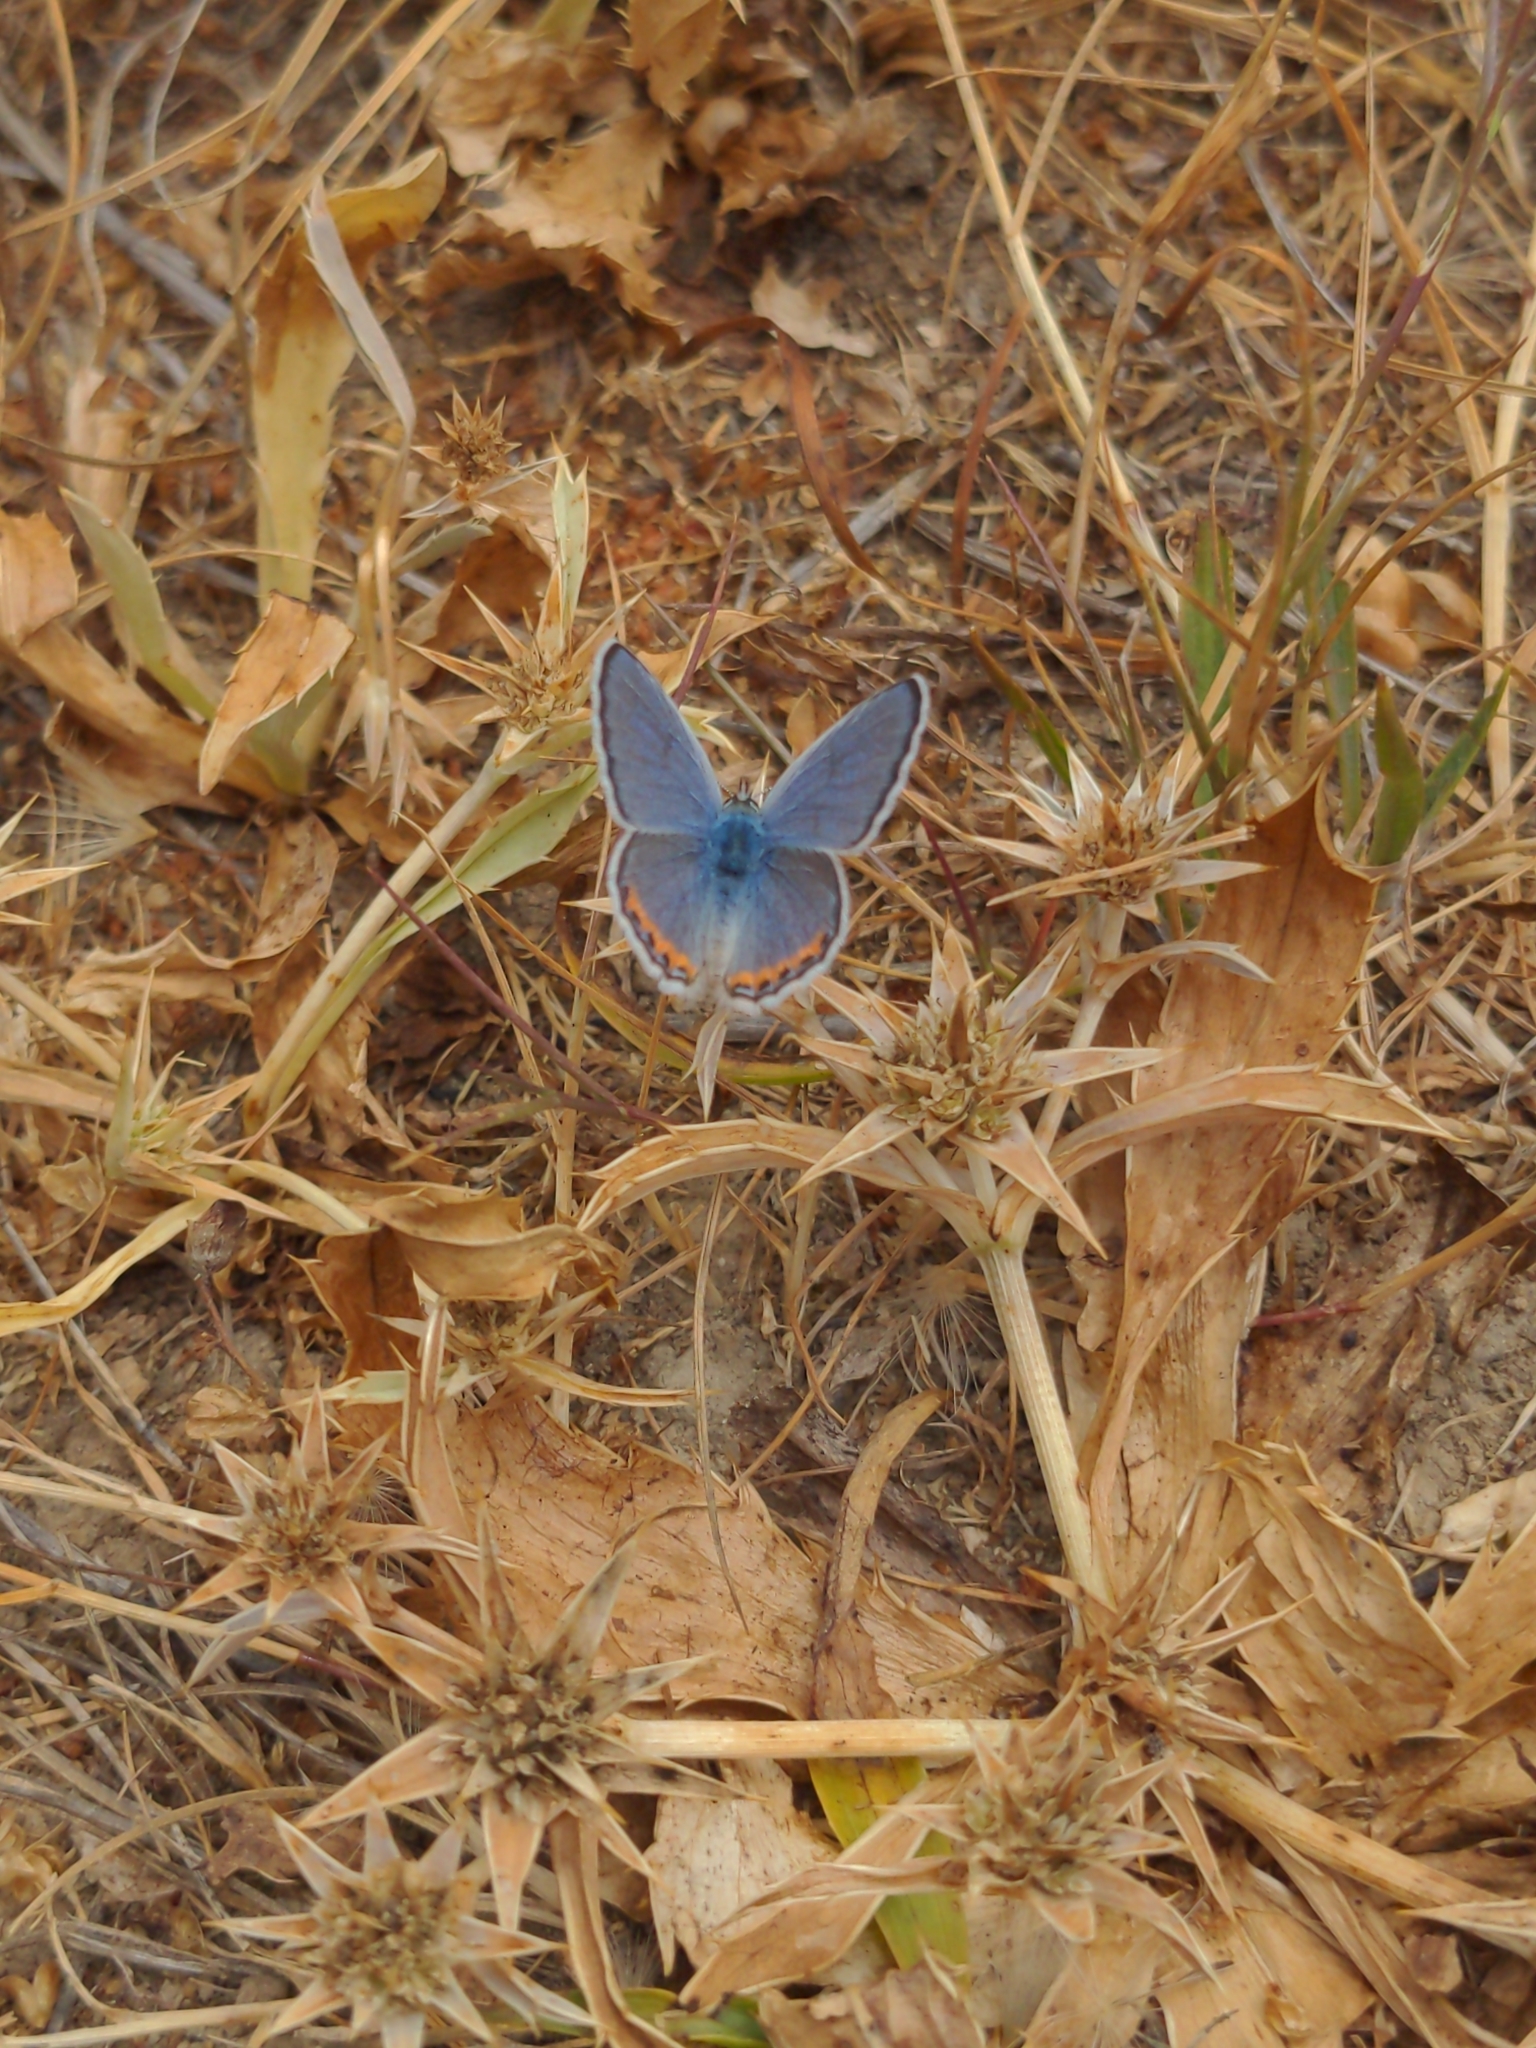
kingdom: Animalia
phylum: Arthropoda
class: Insecta
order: Lepidoptera
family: Lycaenidae
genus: Icaricia
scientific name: Icaricia acmon
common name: Acmon blue
